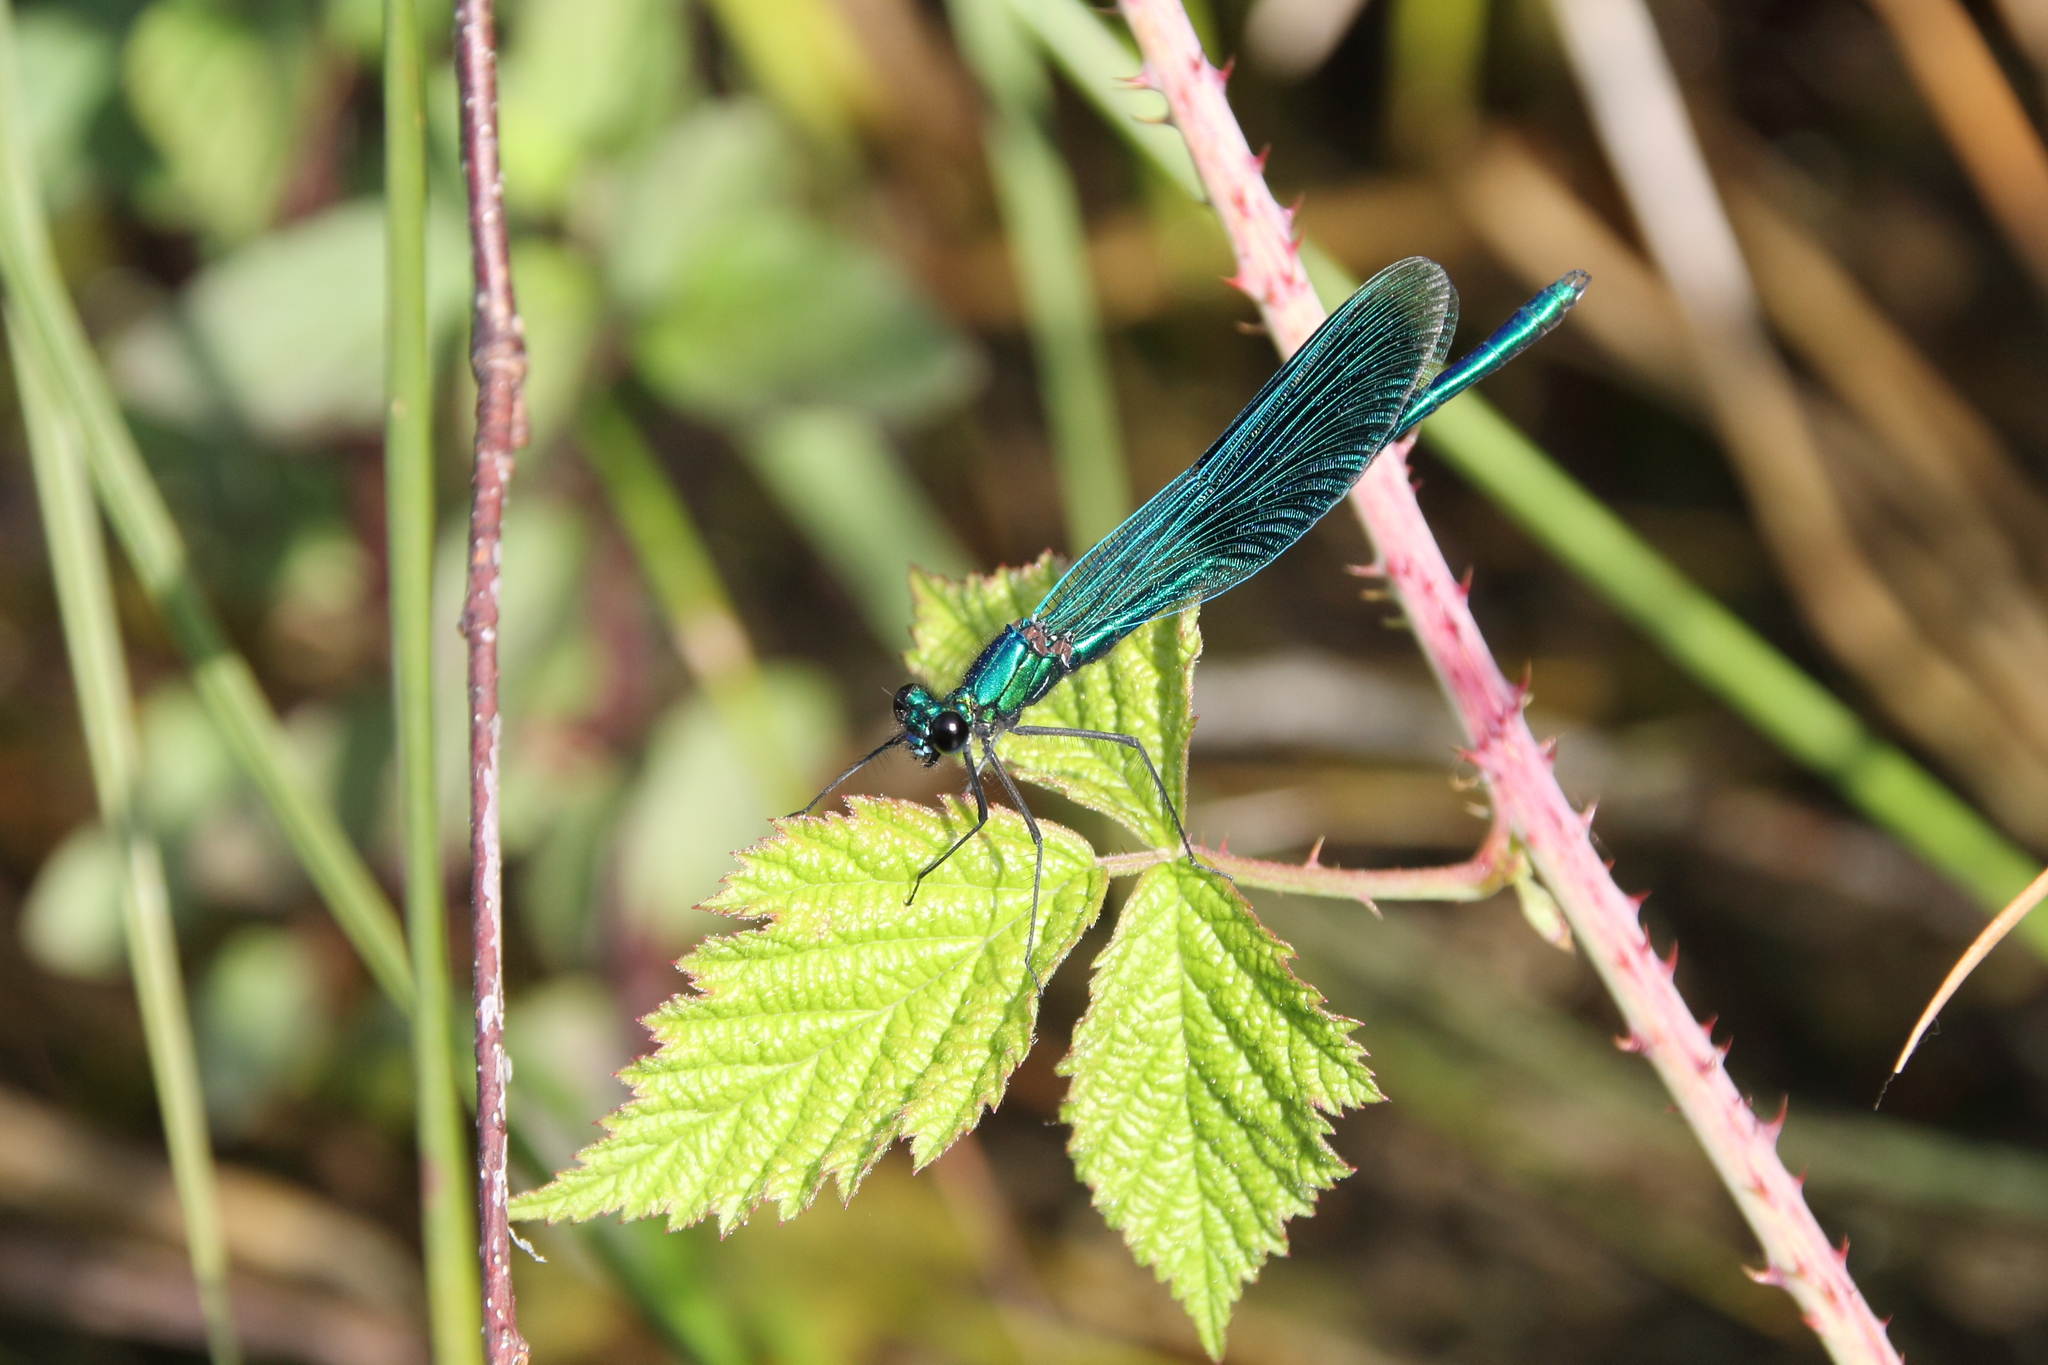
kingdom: Animalia
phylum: Arthropoda
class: Insecta
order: Odonata
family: Calopterygidae
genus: Calopteryx
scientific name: Calopteryx splendens
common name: Banded demoiselle
